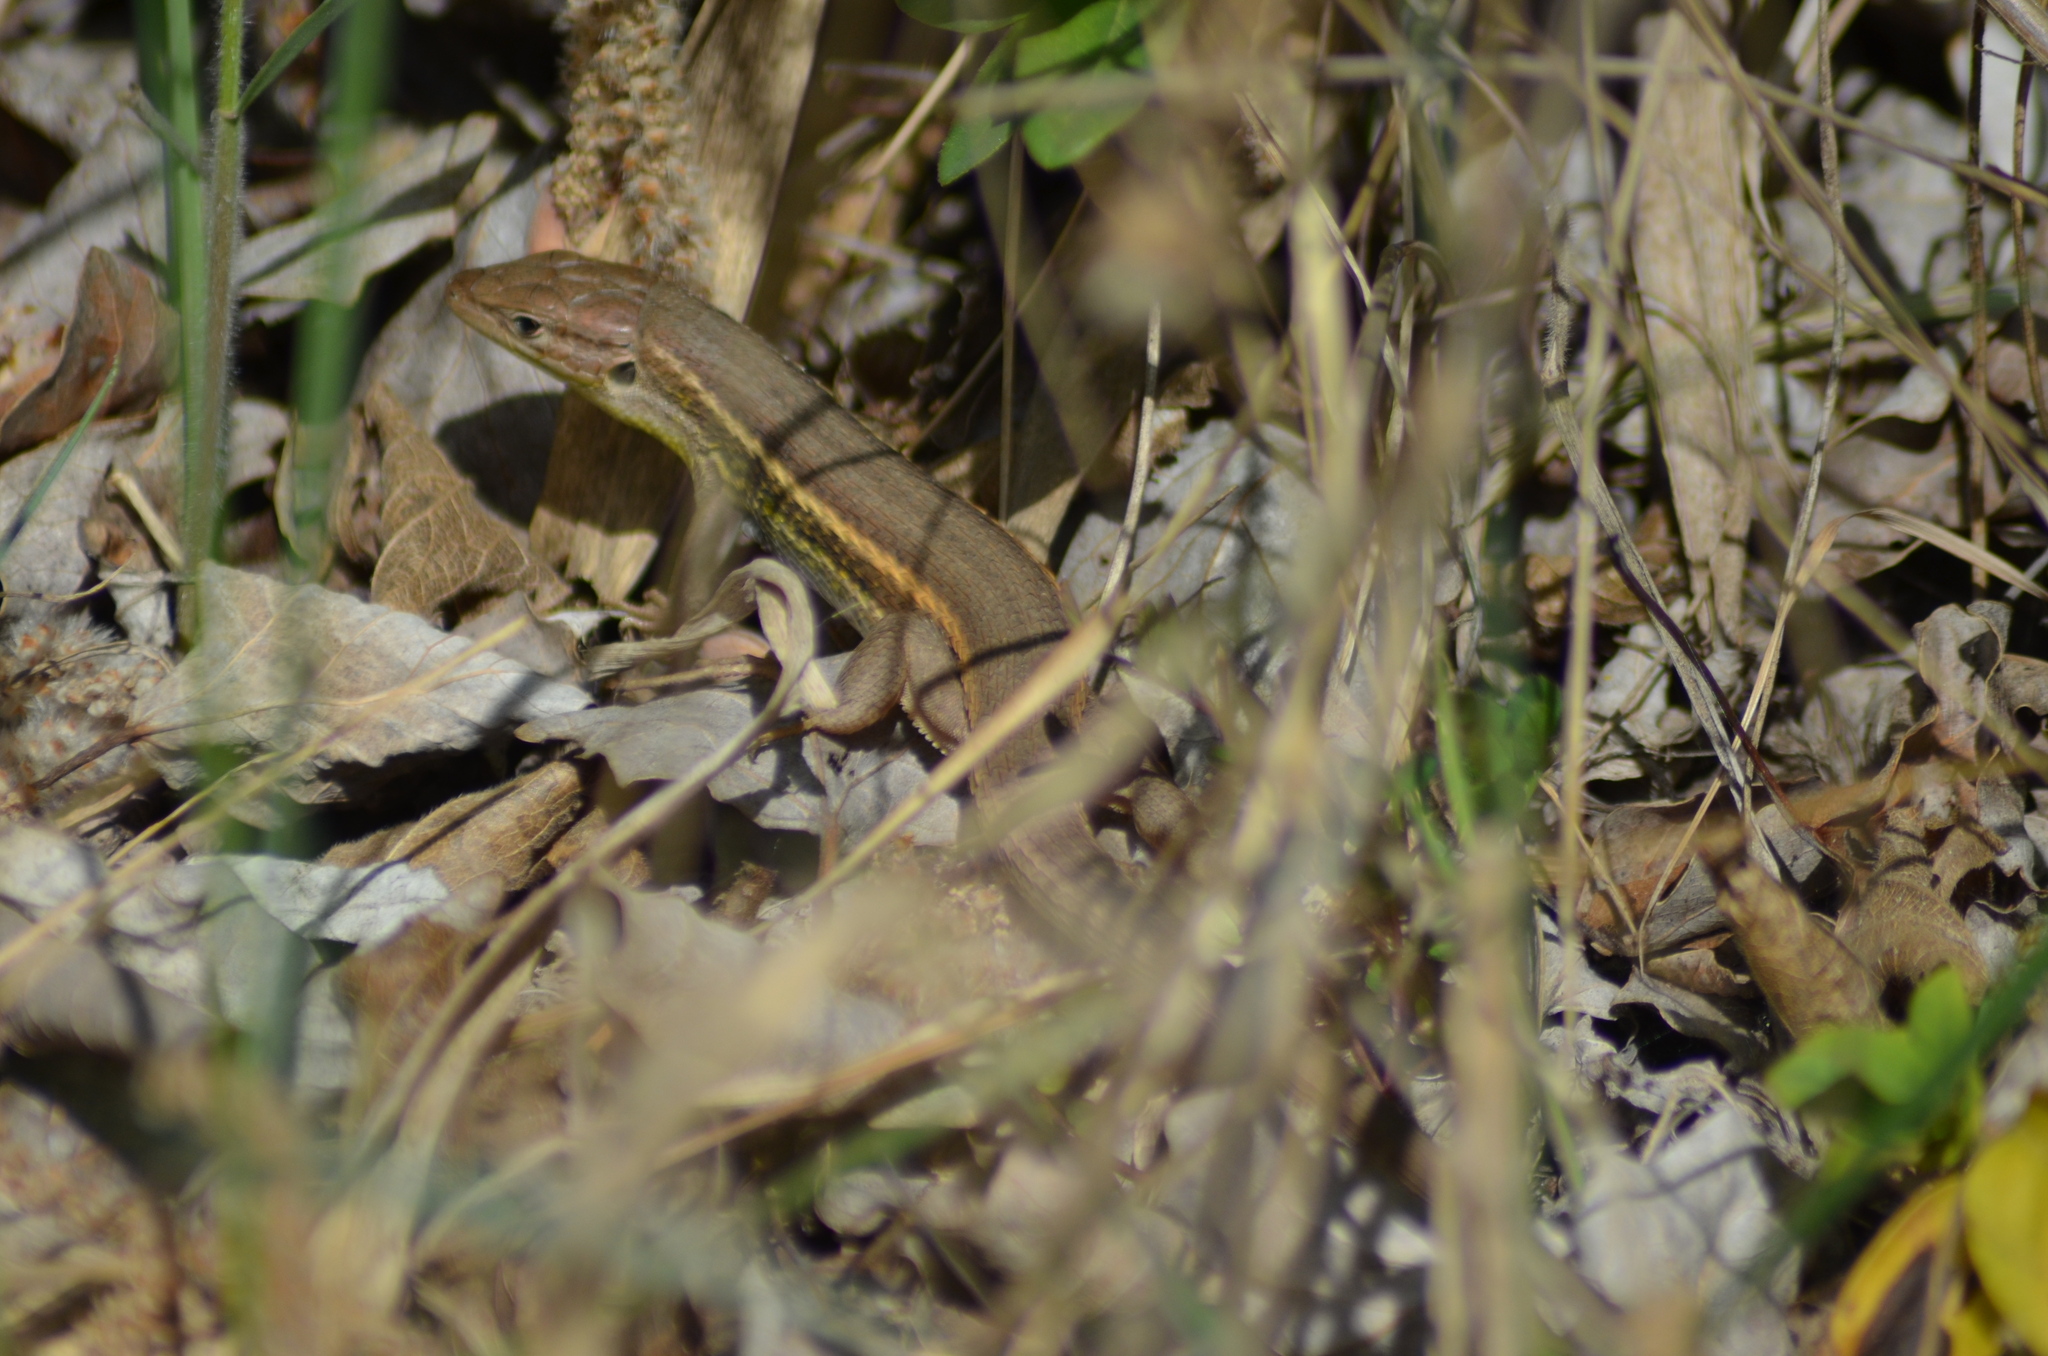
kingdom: Animalia
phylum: Chordata
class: Squamata
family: Lacertidae
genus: Psammodromus
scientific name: Psammodromus algirus
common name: Algerian psammodromus
